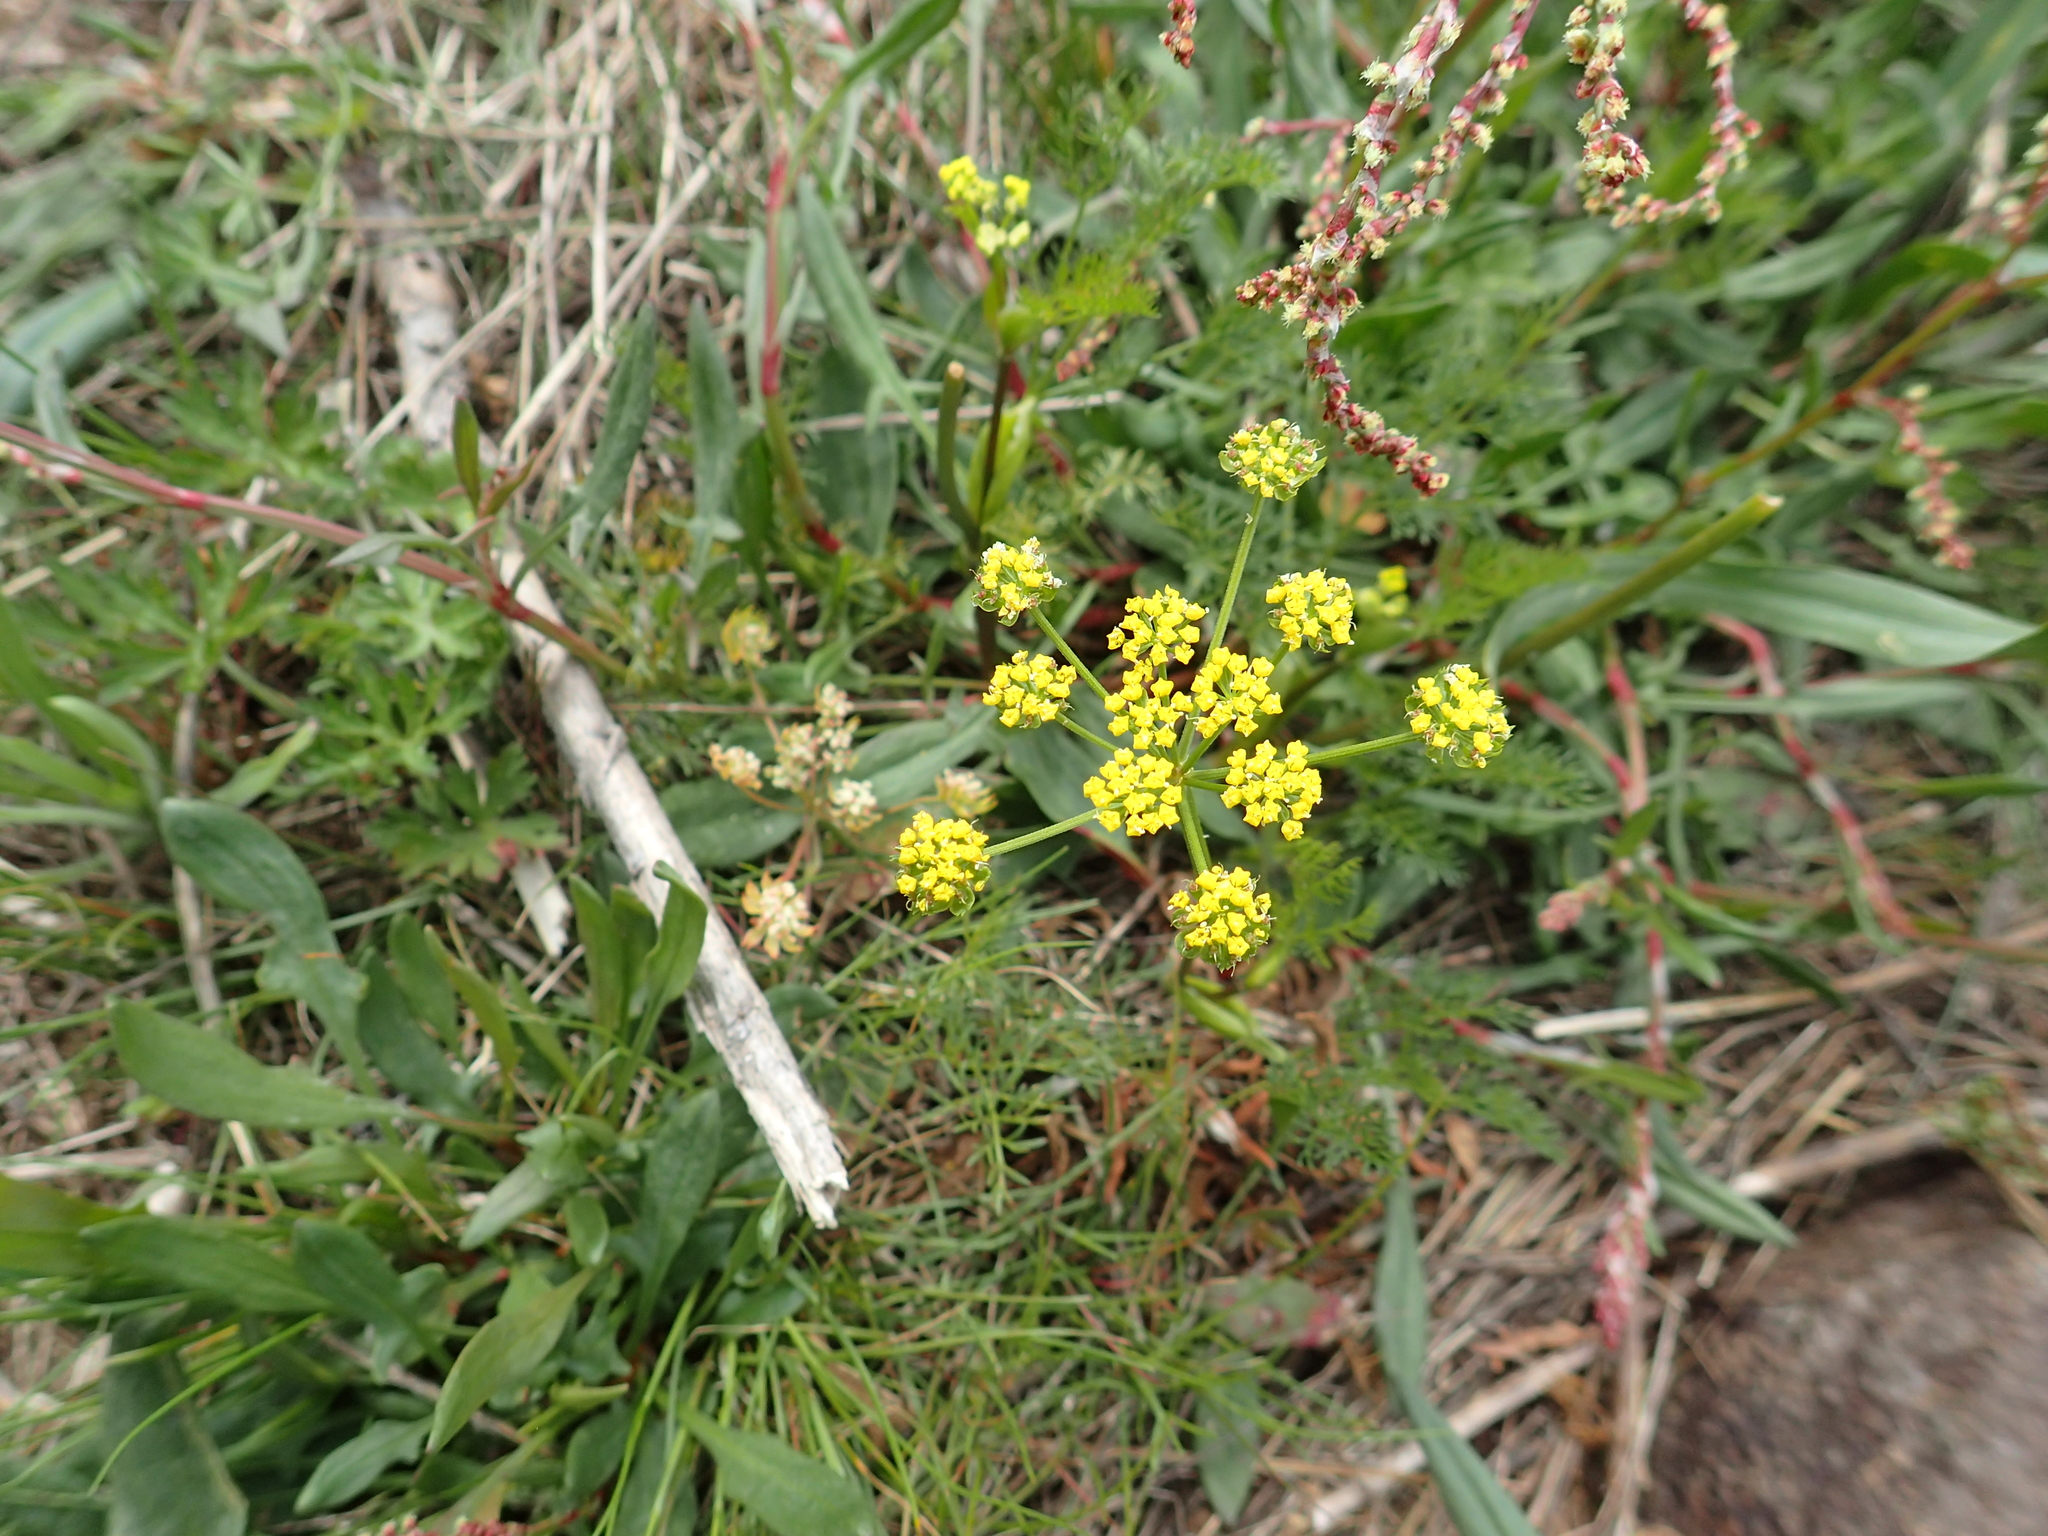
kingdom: Plantae
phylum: Tracheophyta
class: Magnoliopsida
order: Apiales
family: Apiaceae
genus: Lomatium
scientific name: Lomatium utriculatum
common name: Fine-leaf desert-parsley
